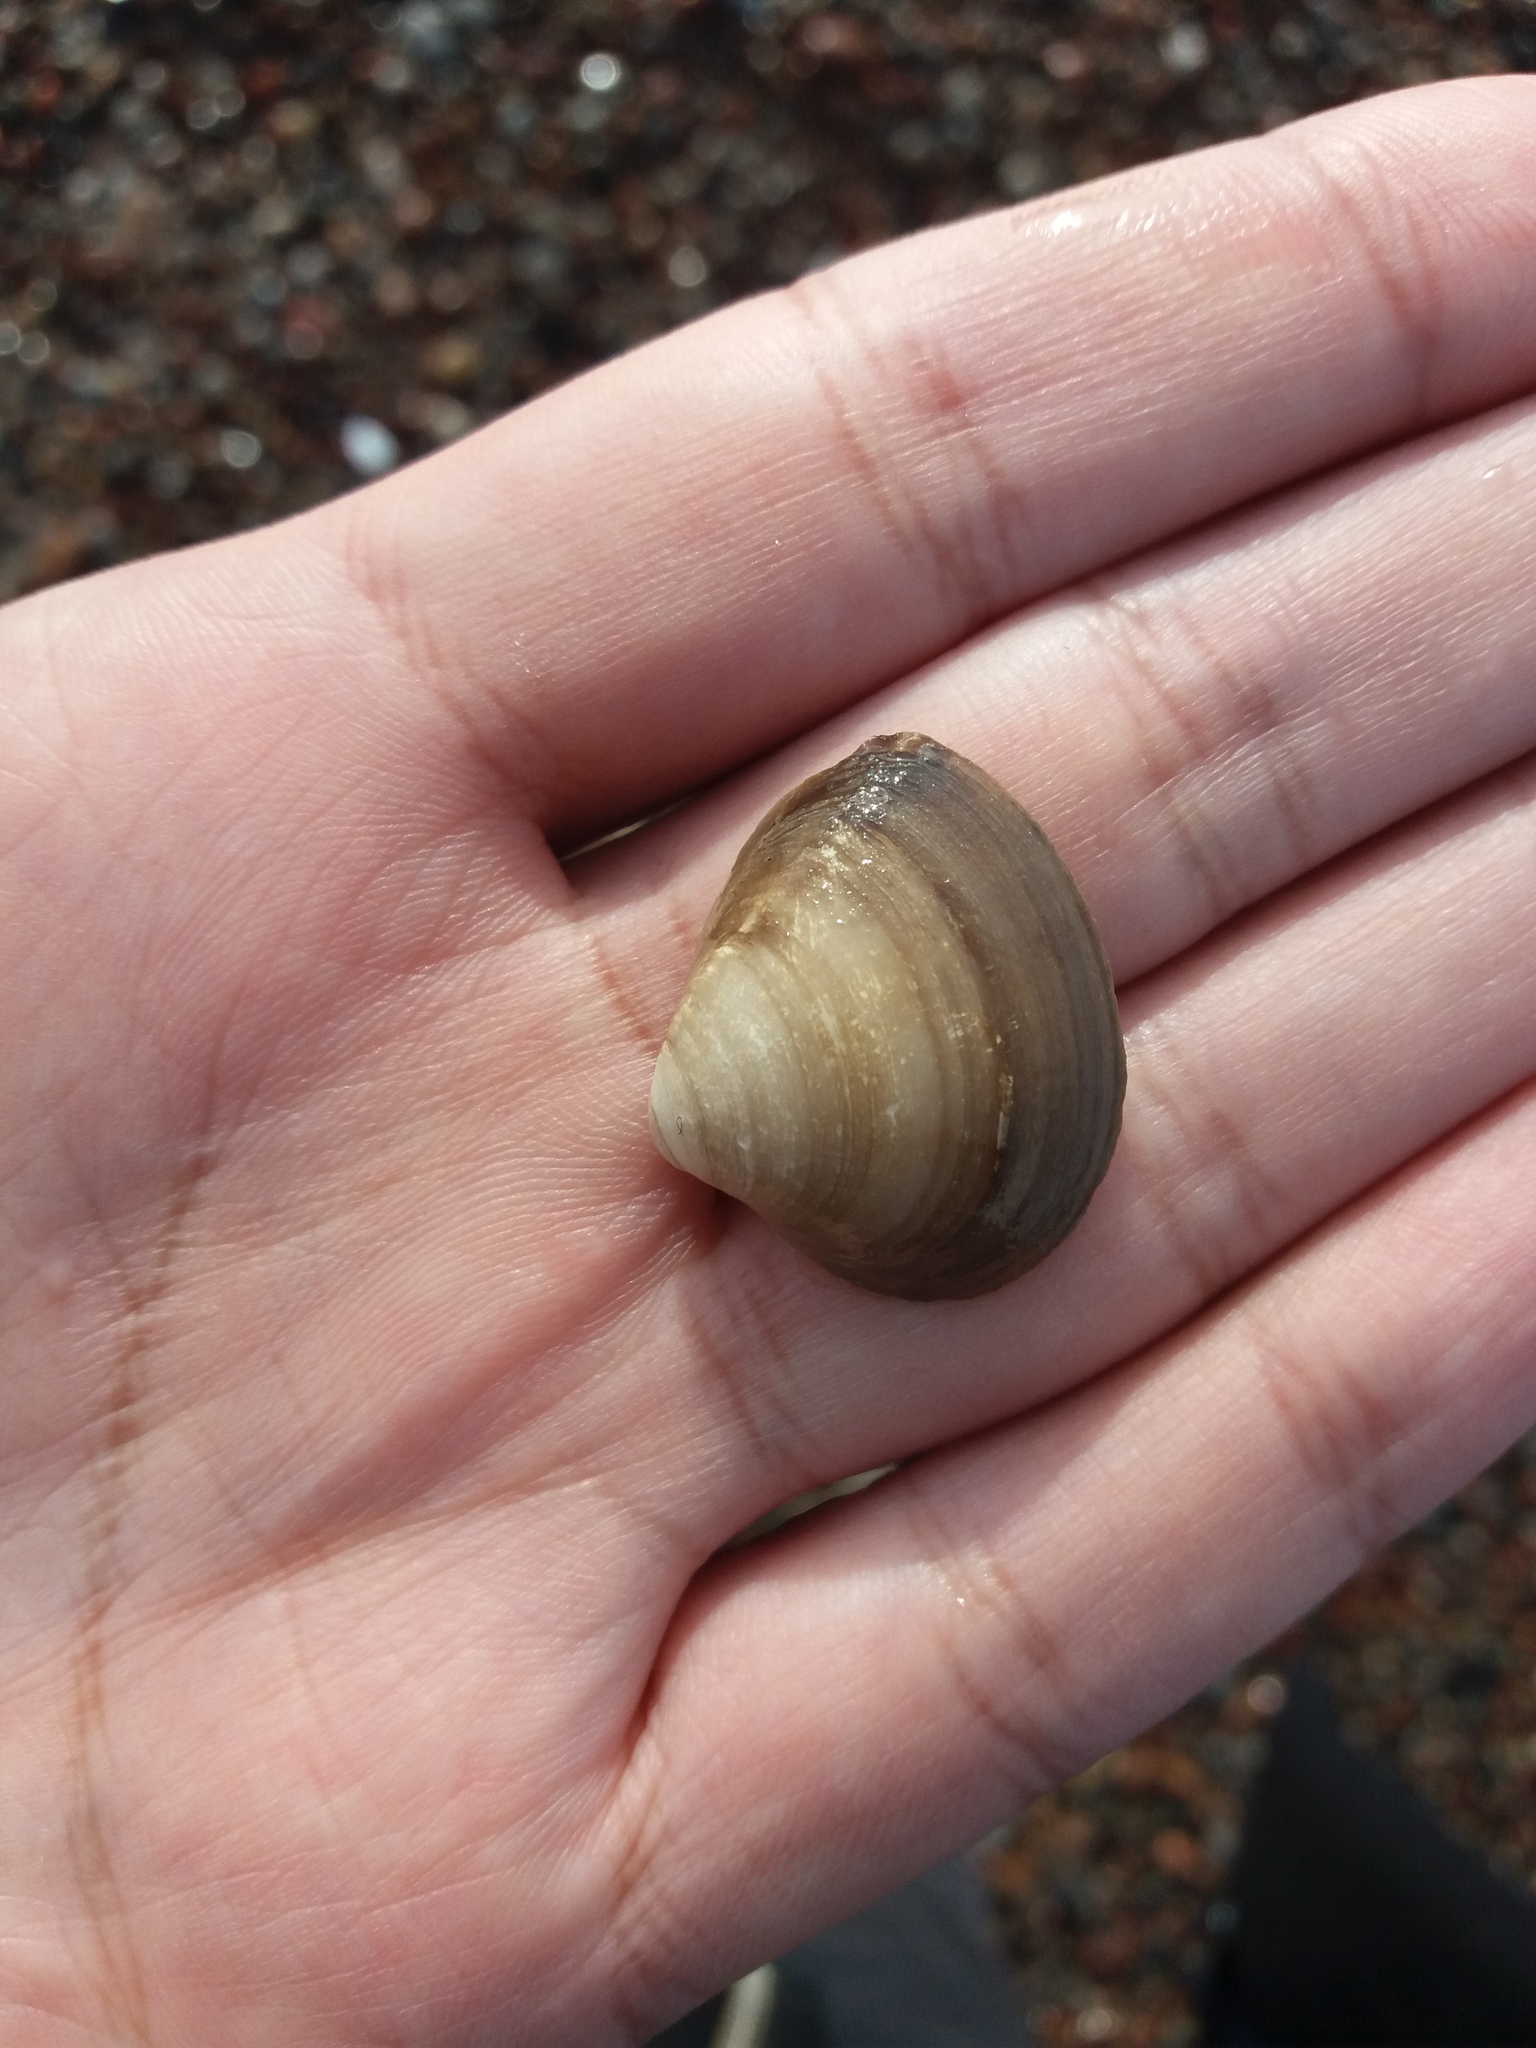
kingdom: Animalia
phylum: Mollusca
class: Bivalvia
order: Venerida
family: Mactridae
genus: Rangia
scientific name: Rangia cuneata
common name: Atlantic rangia
